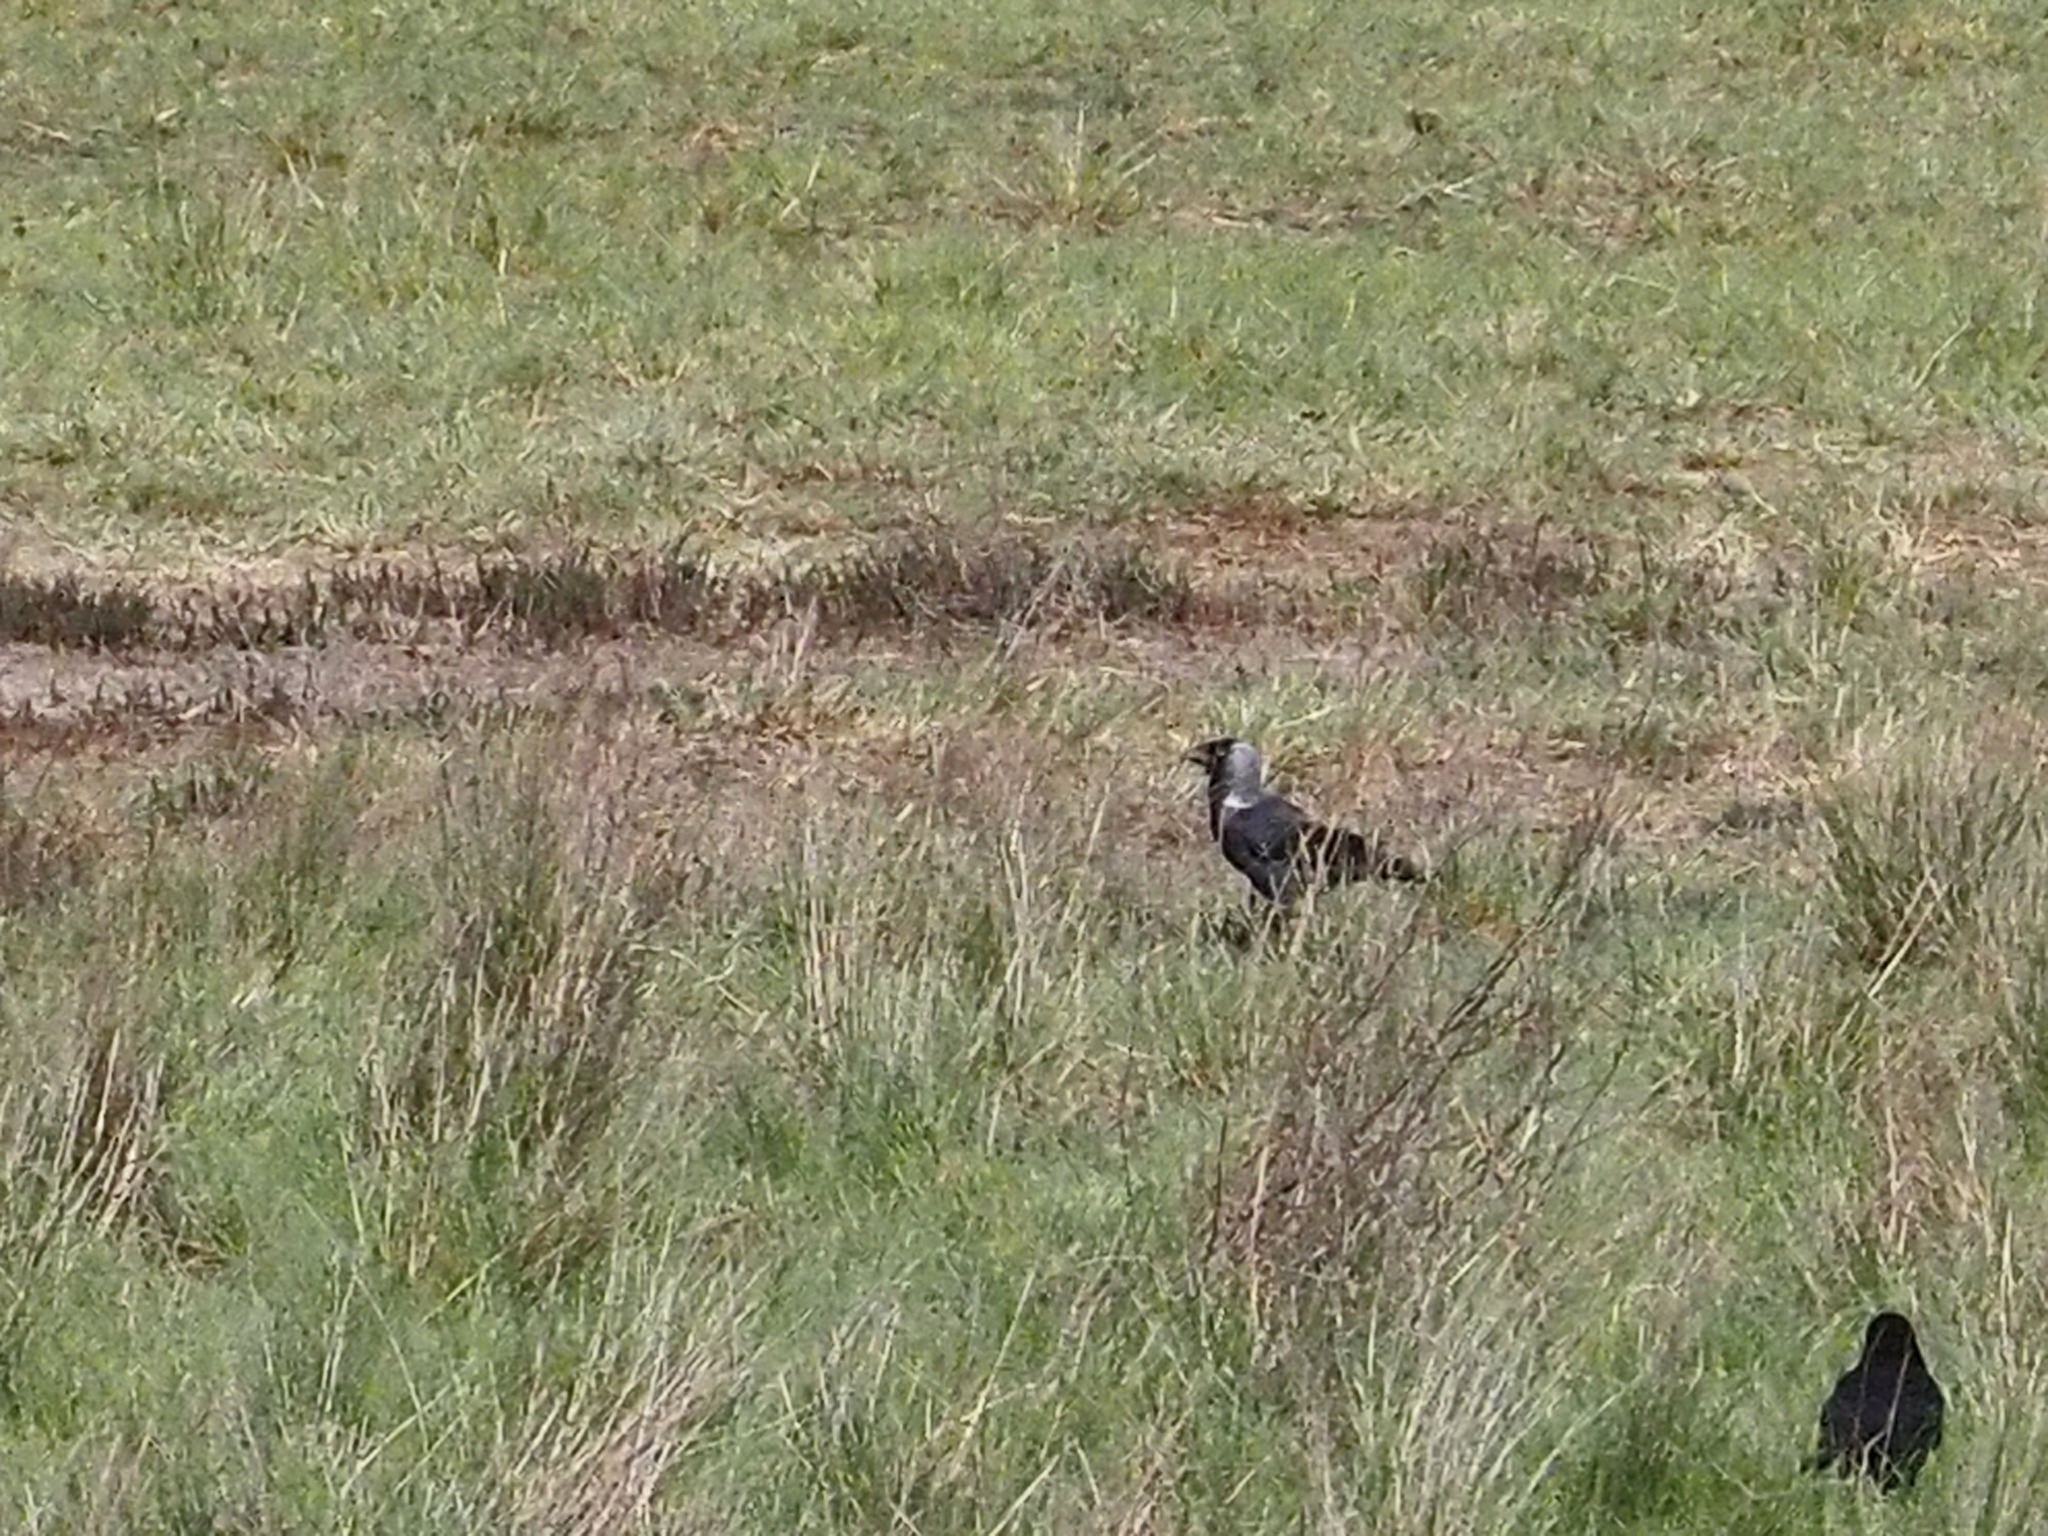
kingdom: Animalia
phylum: Chordata
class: Aves
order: Passeriformes
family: Corvidae
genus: Coloeus
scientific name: Coloeus monedula
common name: Western jackdaw
